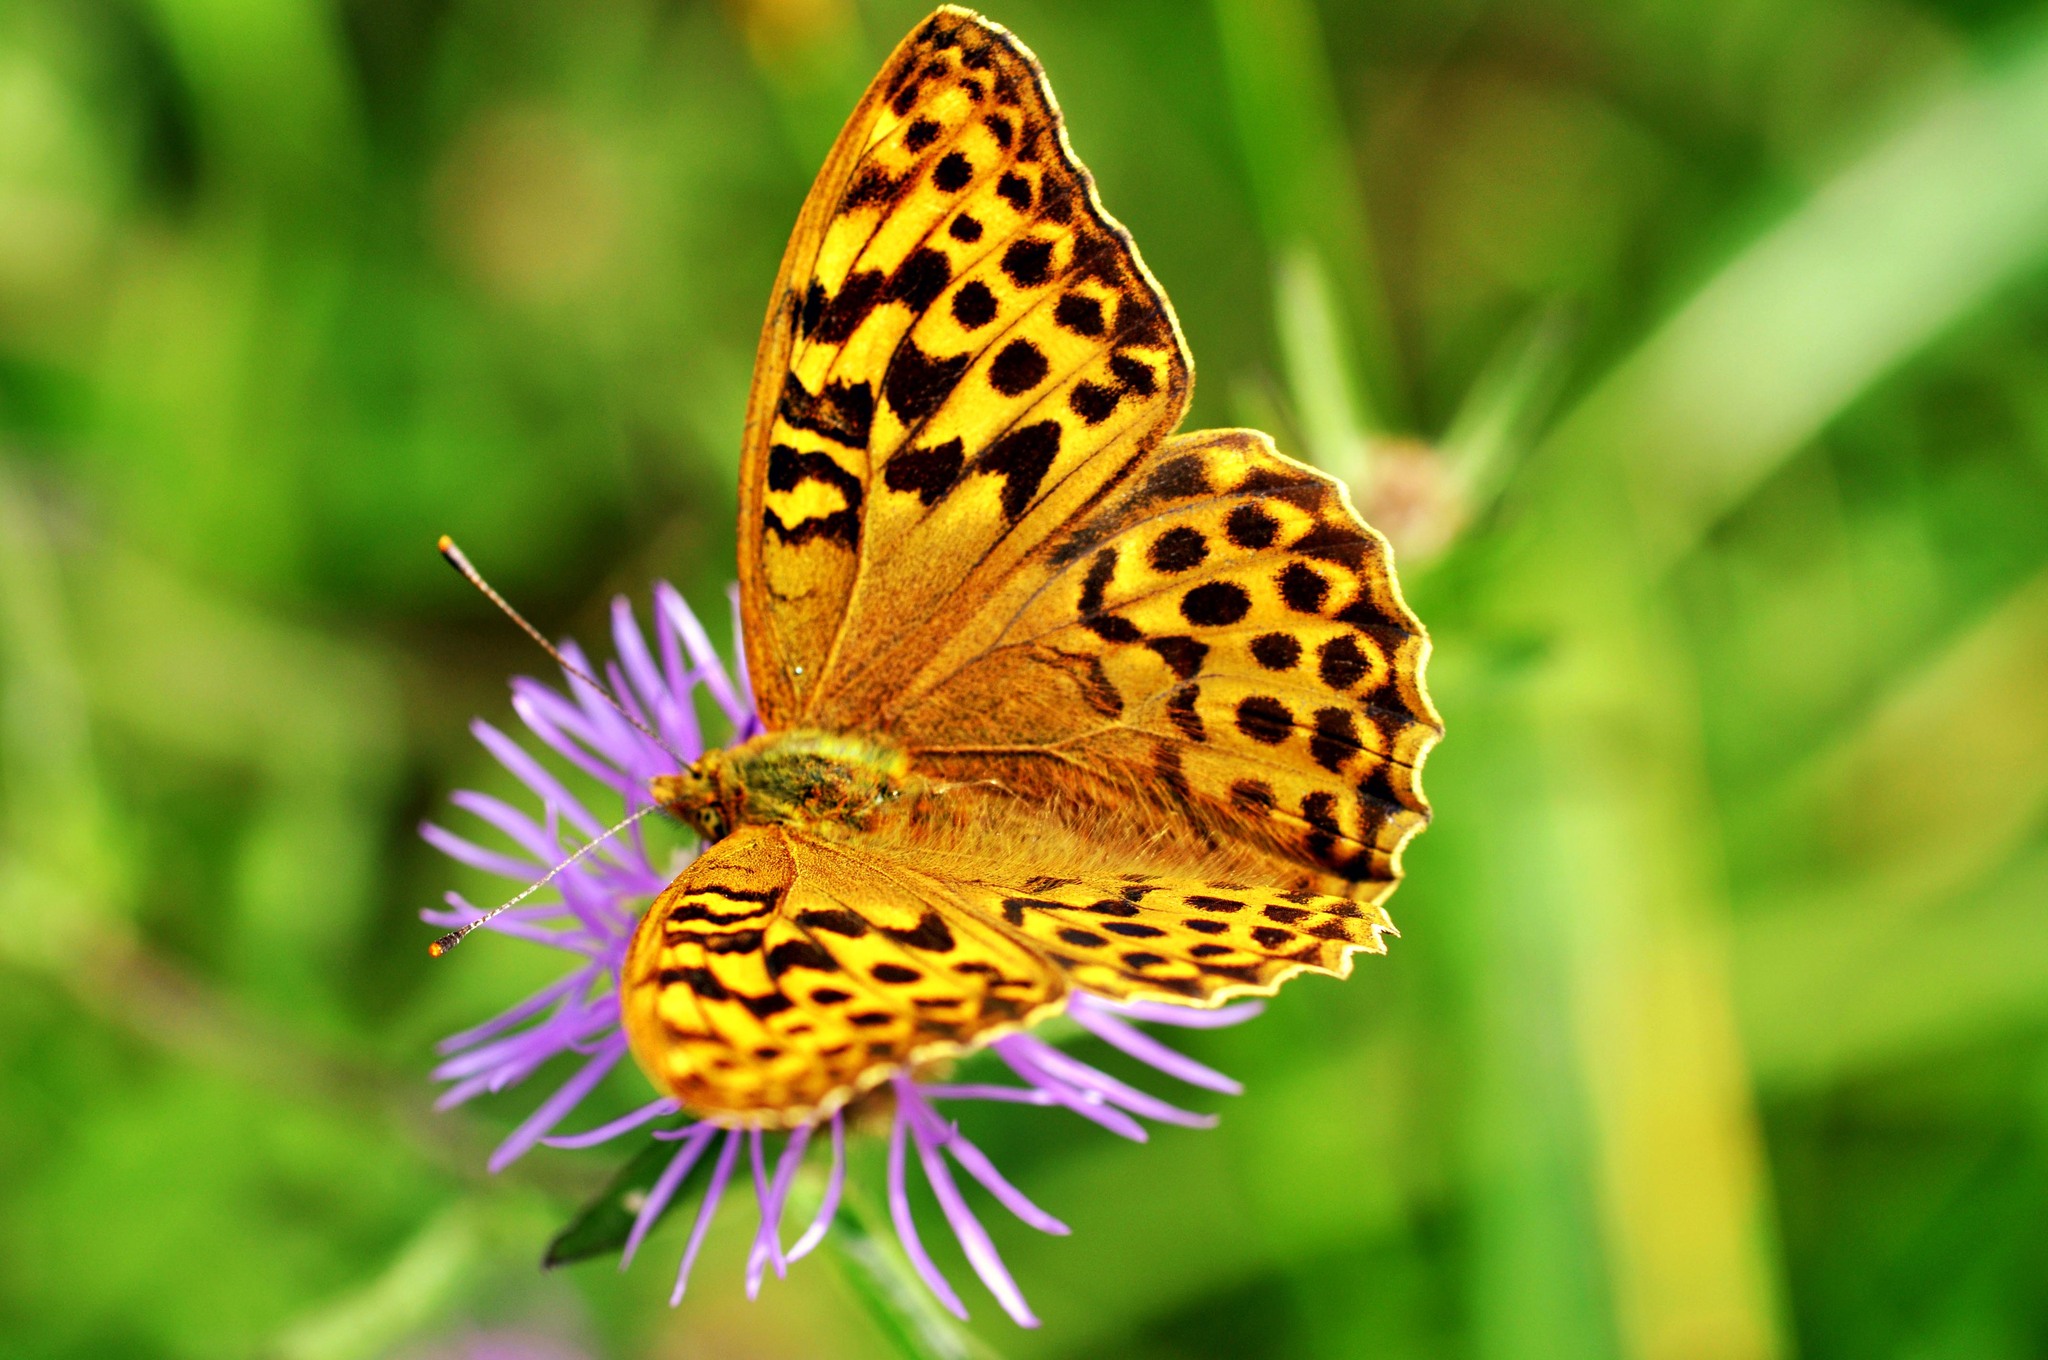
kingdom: Animalia
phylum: Arthropoda
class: Insecta
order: Lepidoptera
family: Nymphalidae
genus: Argynnis
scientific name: Argynnis paphia
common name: Silver-washed fritillary
